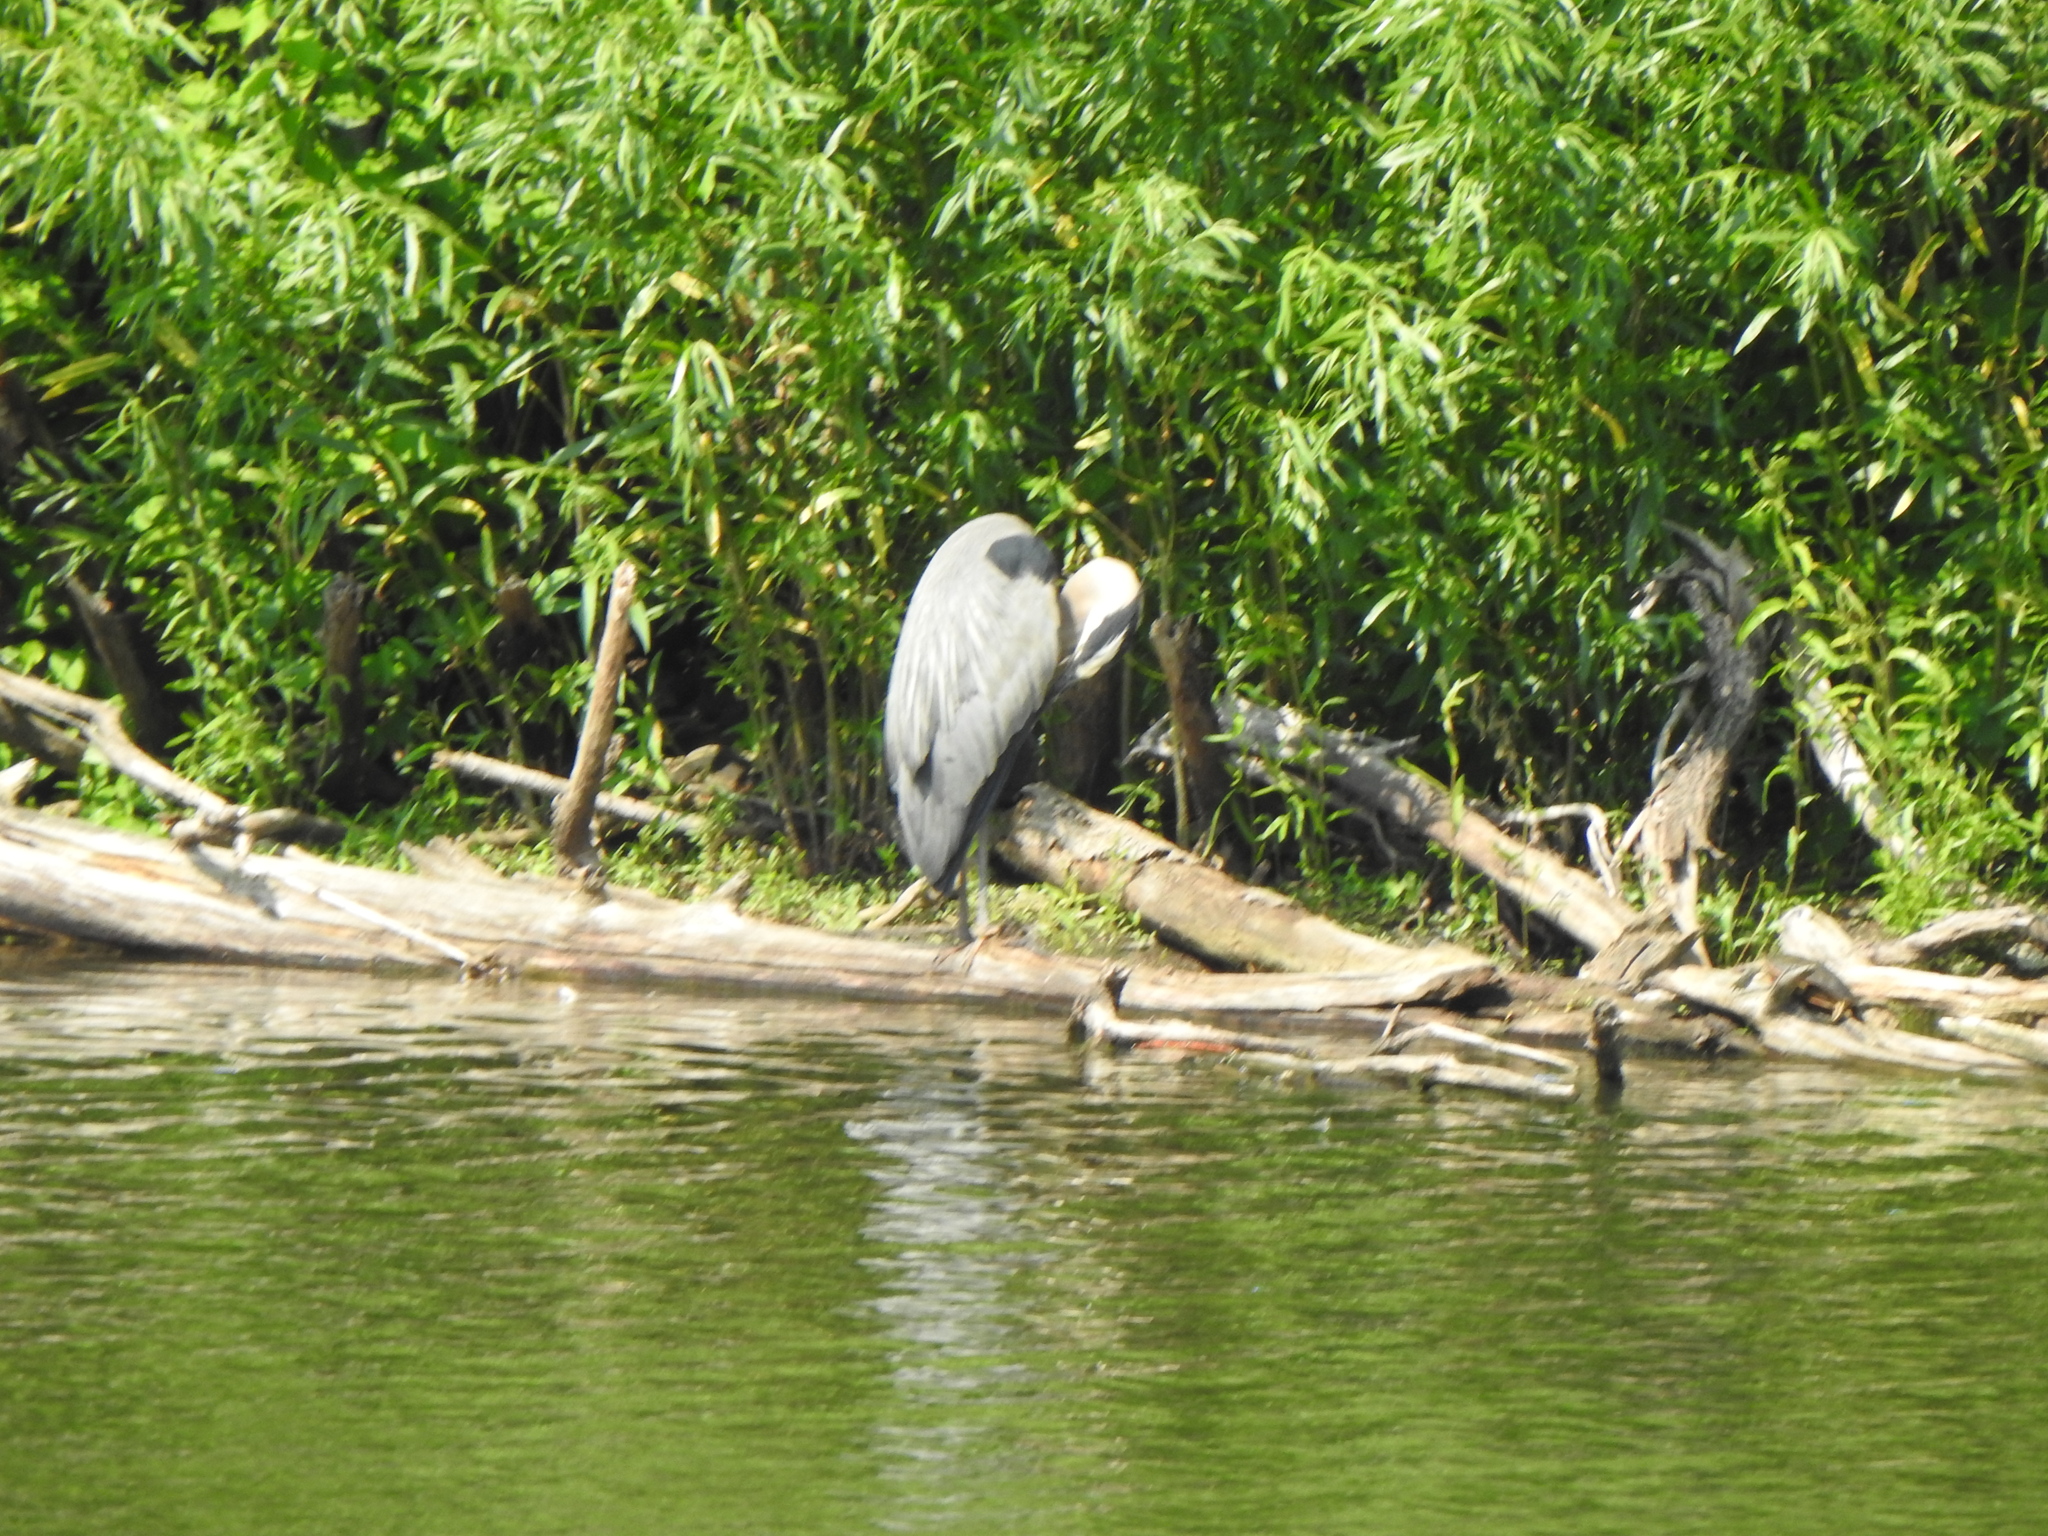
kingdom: Animalia
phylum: Chordata
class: Aves
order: Pelecaniformes
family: Ardeidae
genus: Ardea
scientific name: Ardea herodias
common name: Great blue heron
